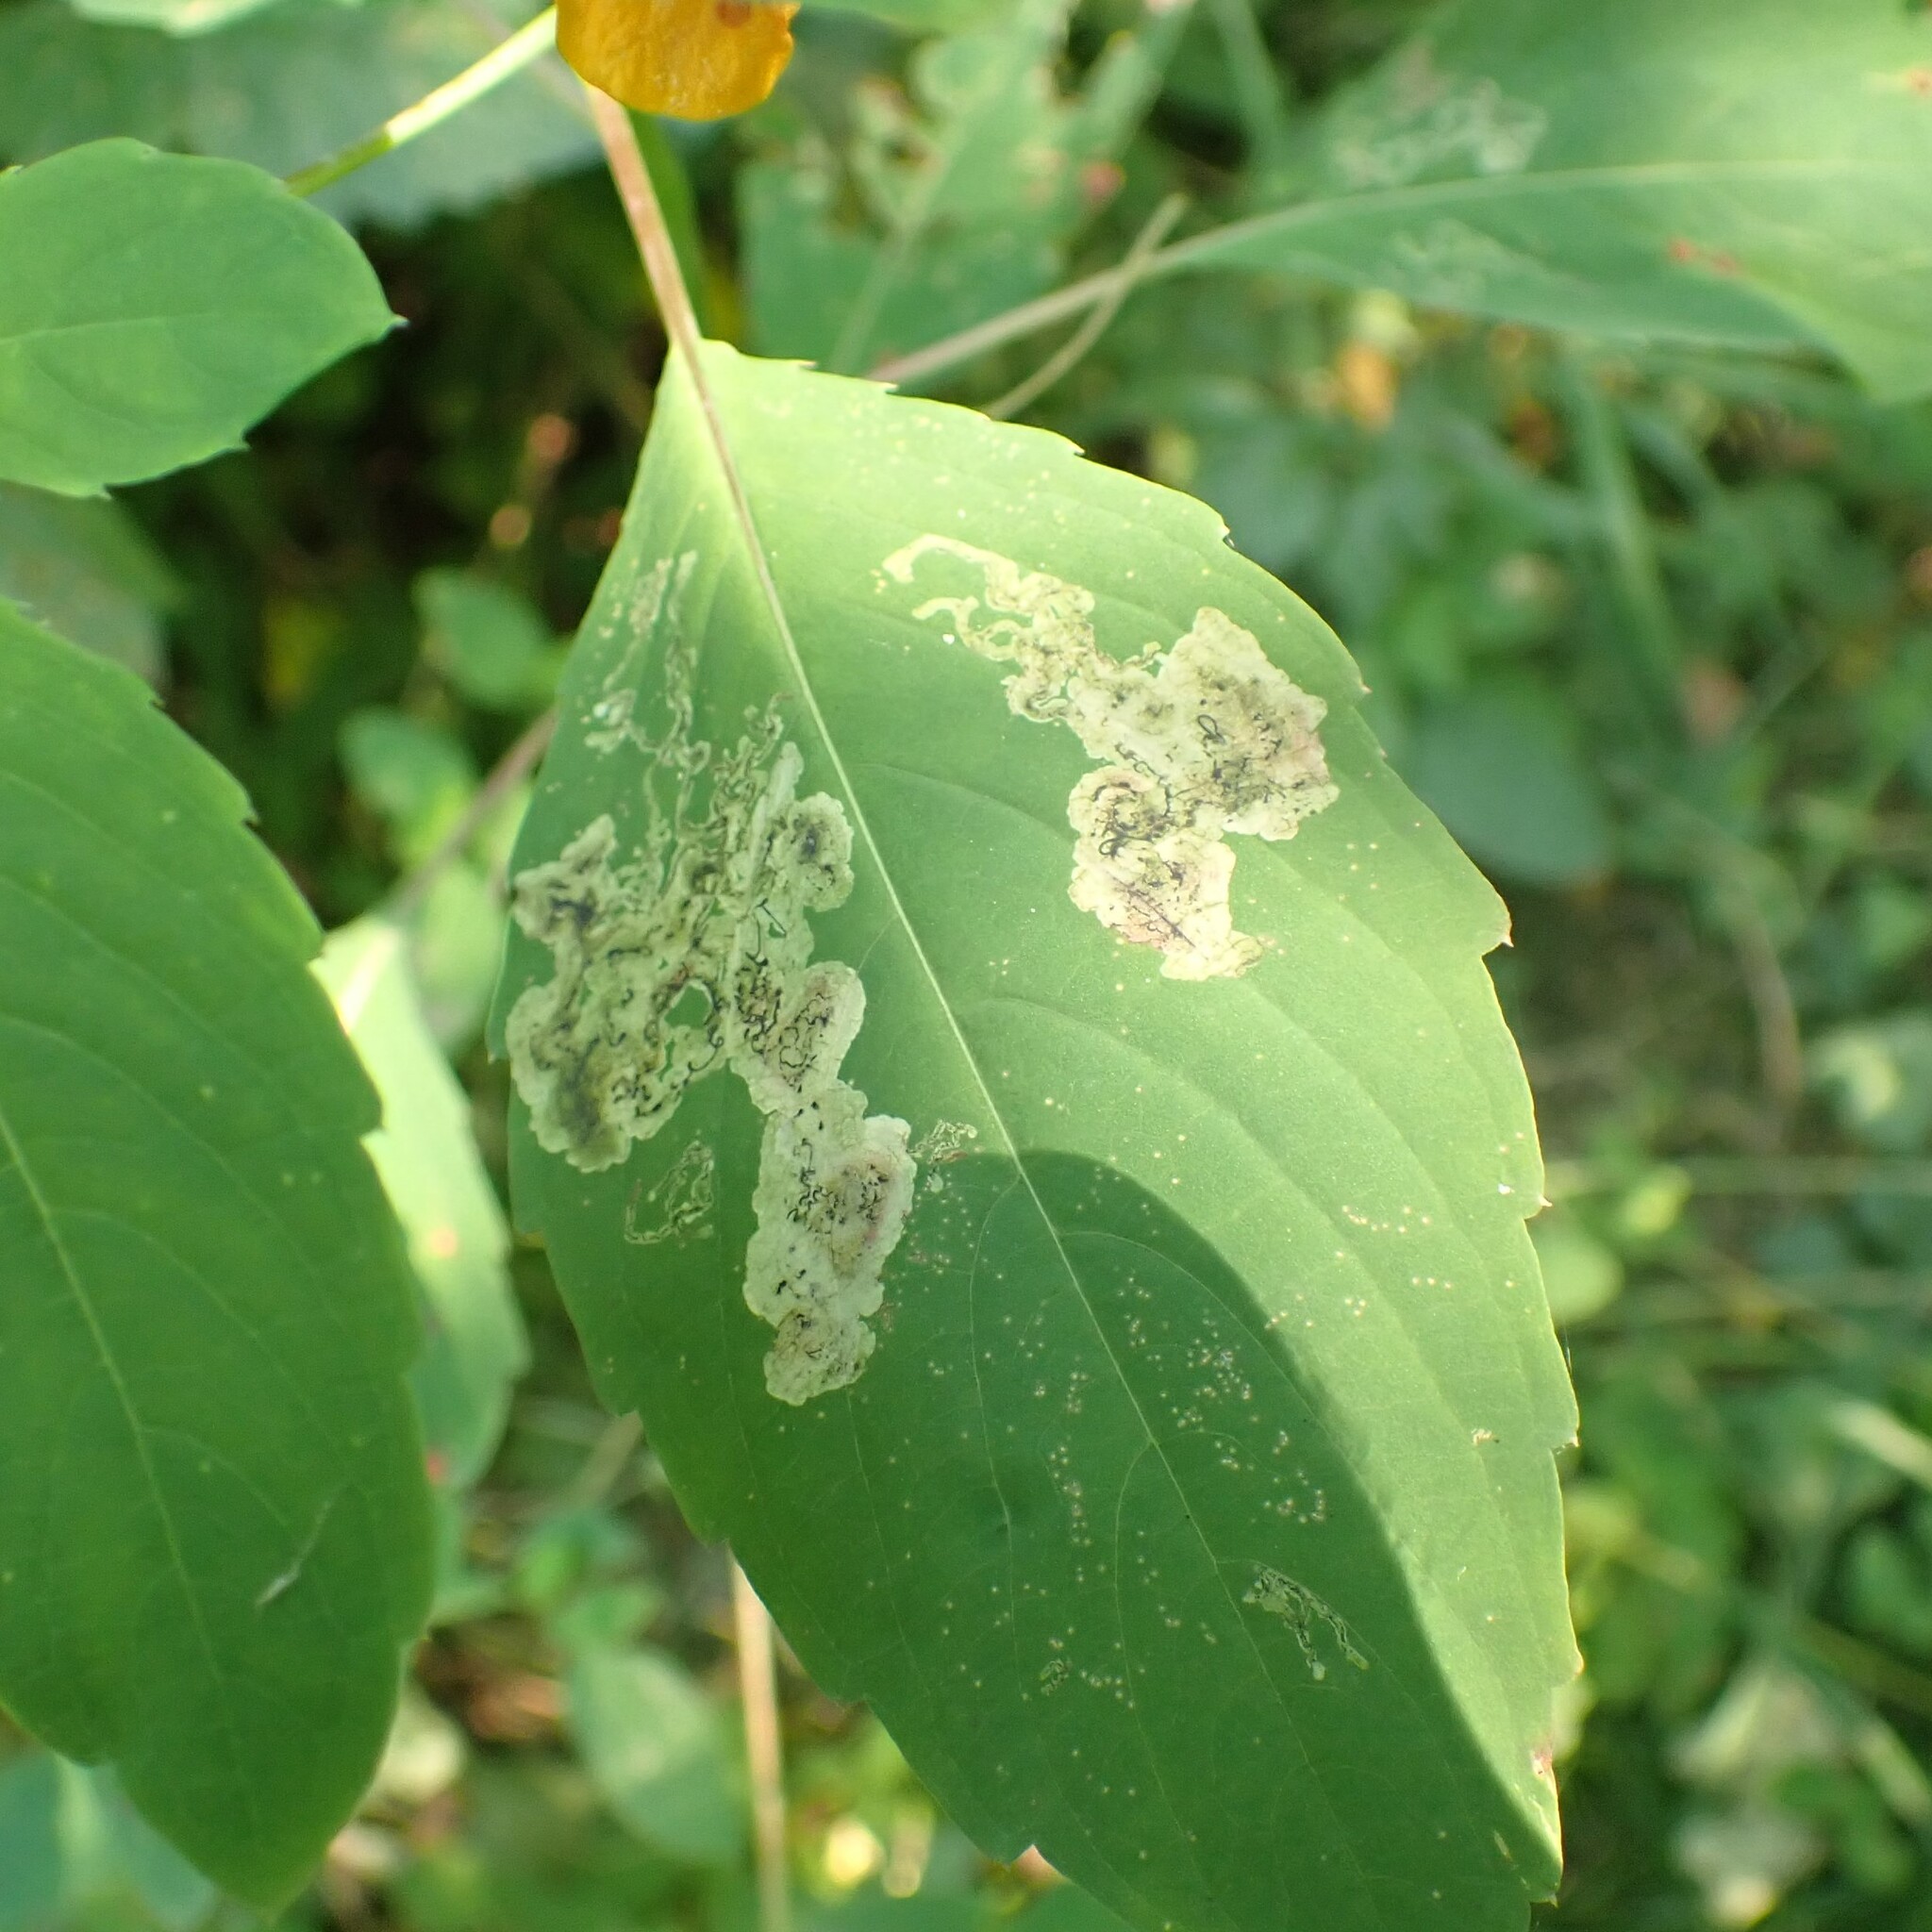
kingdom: Animalia
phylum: Arthropoda
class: Insecta
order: Diptera
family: Agromyzidae
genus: Phytoliriomyza
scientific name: Phytoliriomyza melampyga
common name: Jewelweed leaf-miner fly
